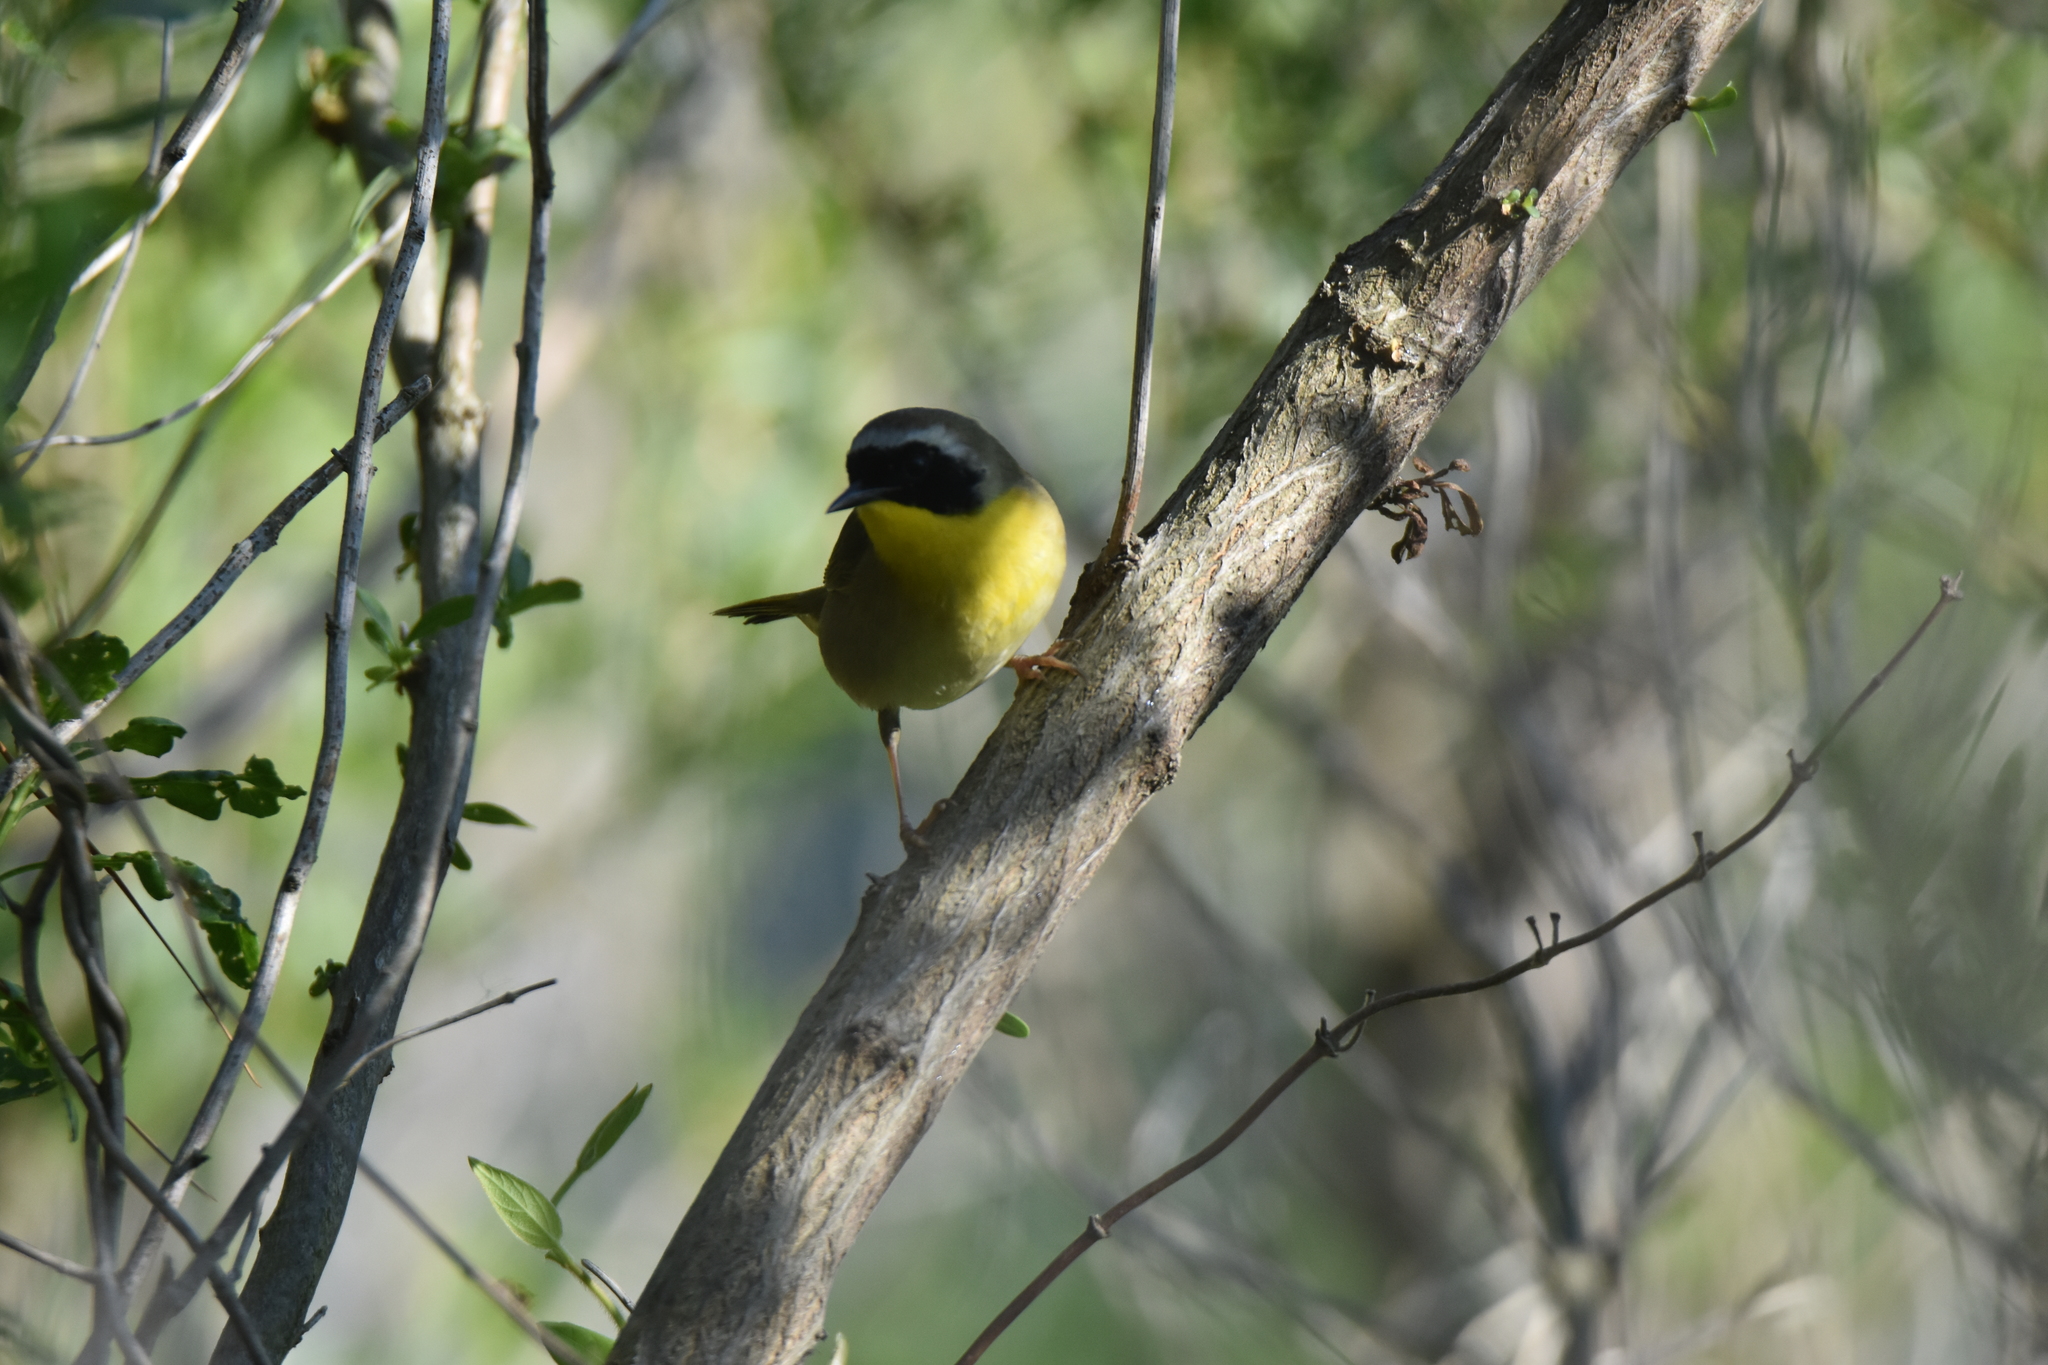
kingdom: Animalia
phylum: Chordata
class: Aves
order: Passeriformes
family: Parulidae
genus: Geothlypis
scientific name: Geothlypis trichas
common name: Common yellowthroat
